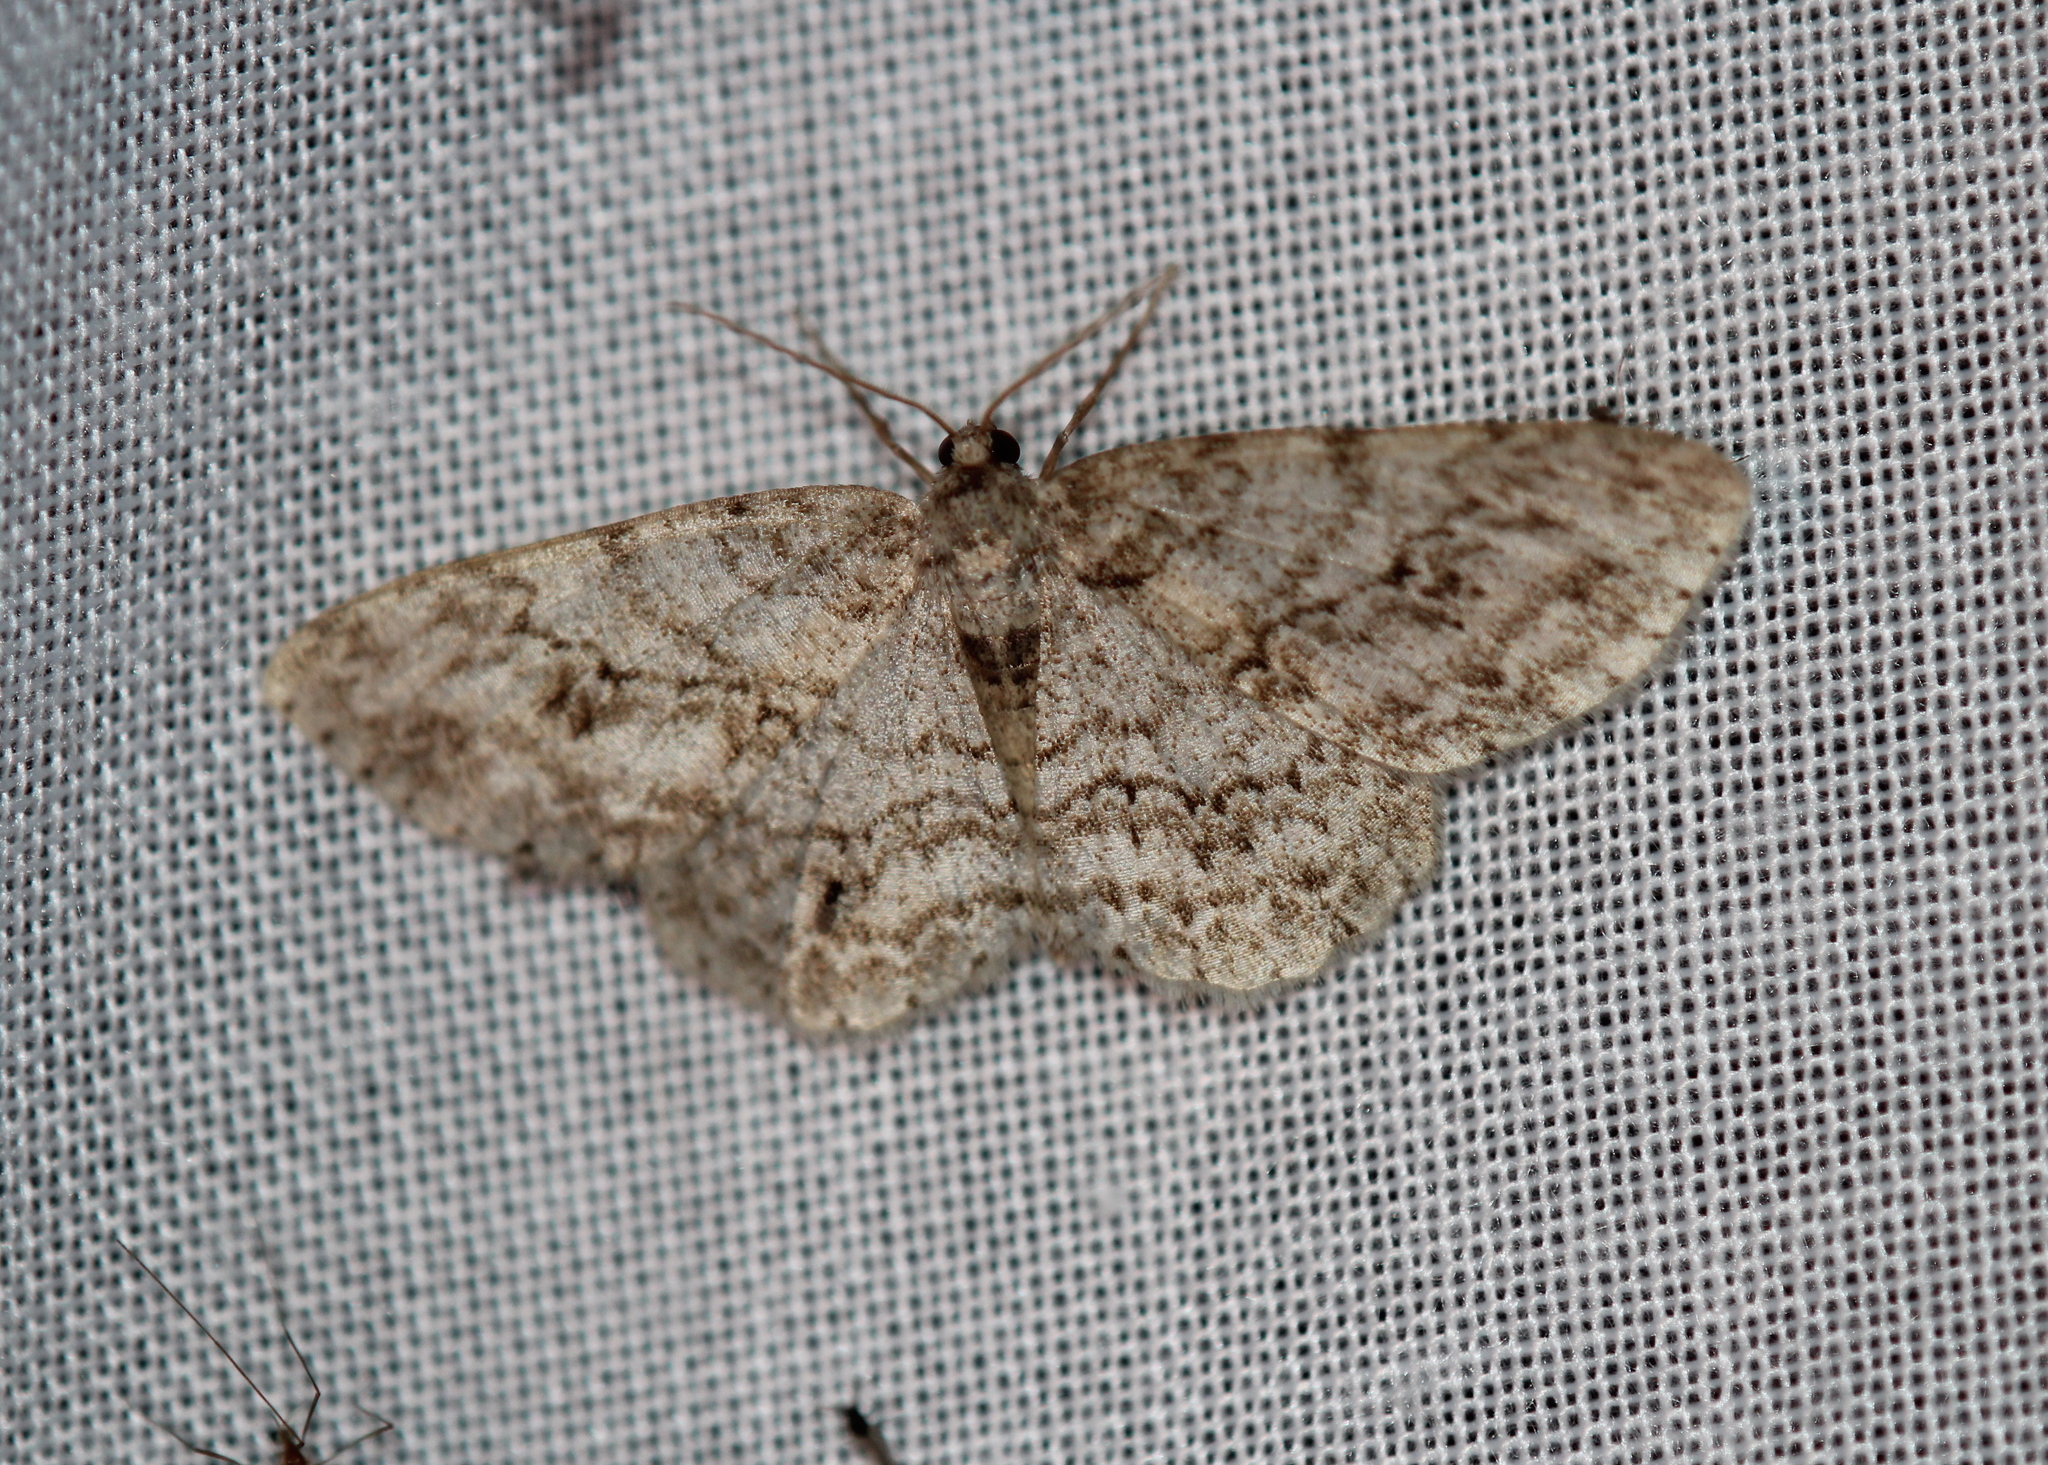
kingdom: Animalia
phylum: Arthropoda
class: Insecta
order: Lepidoptera
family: Geometridae
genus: Ectropis
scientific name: Ectropis crepuscularia
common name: Engrailed
